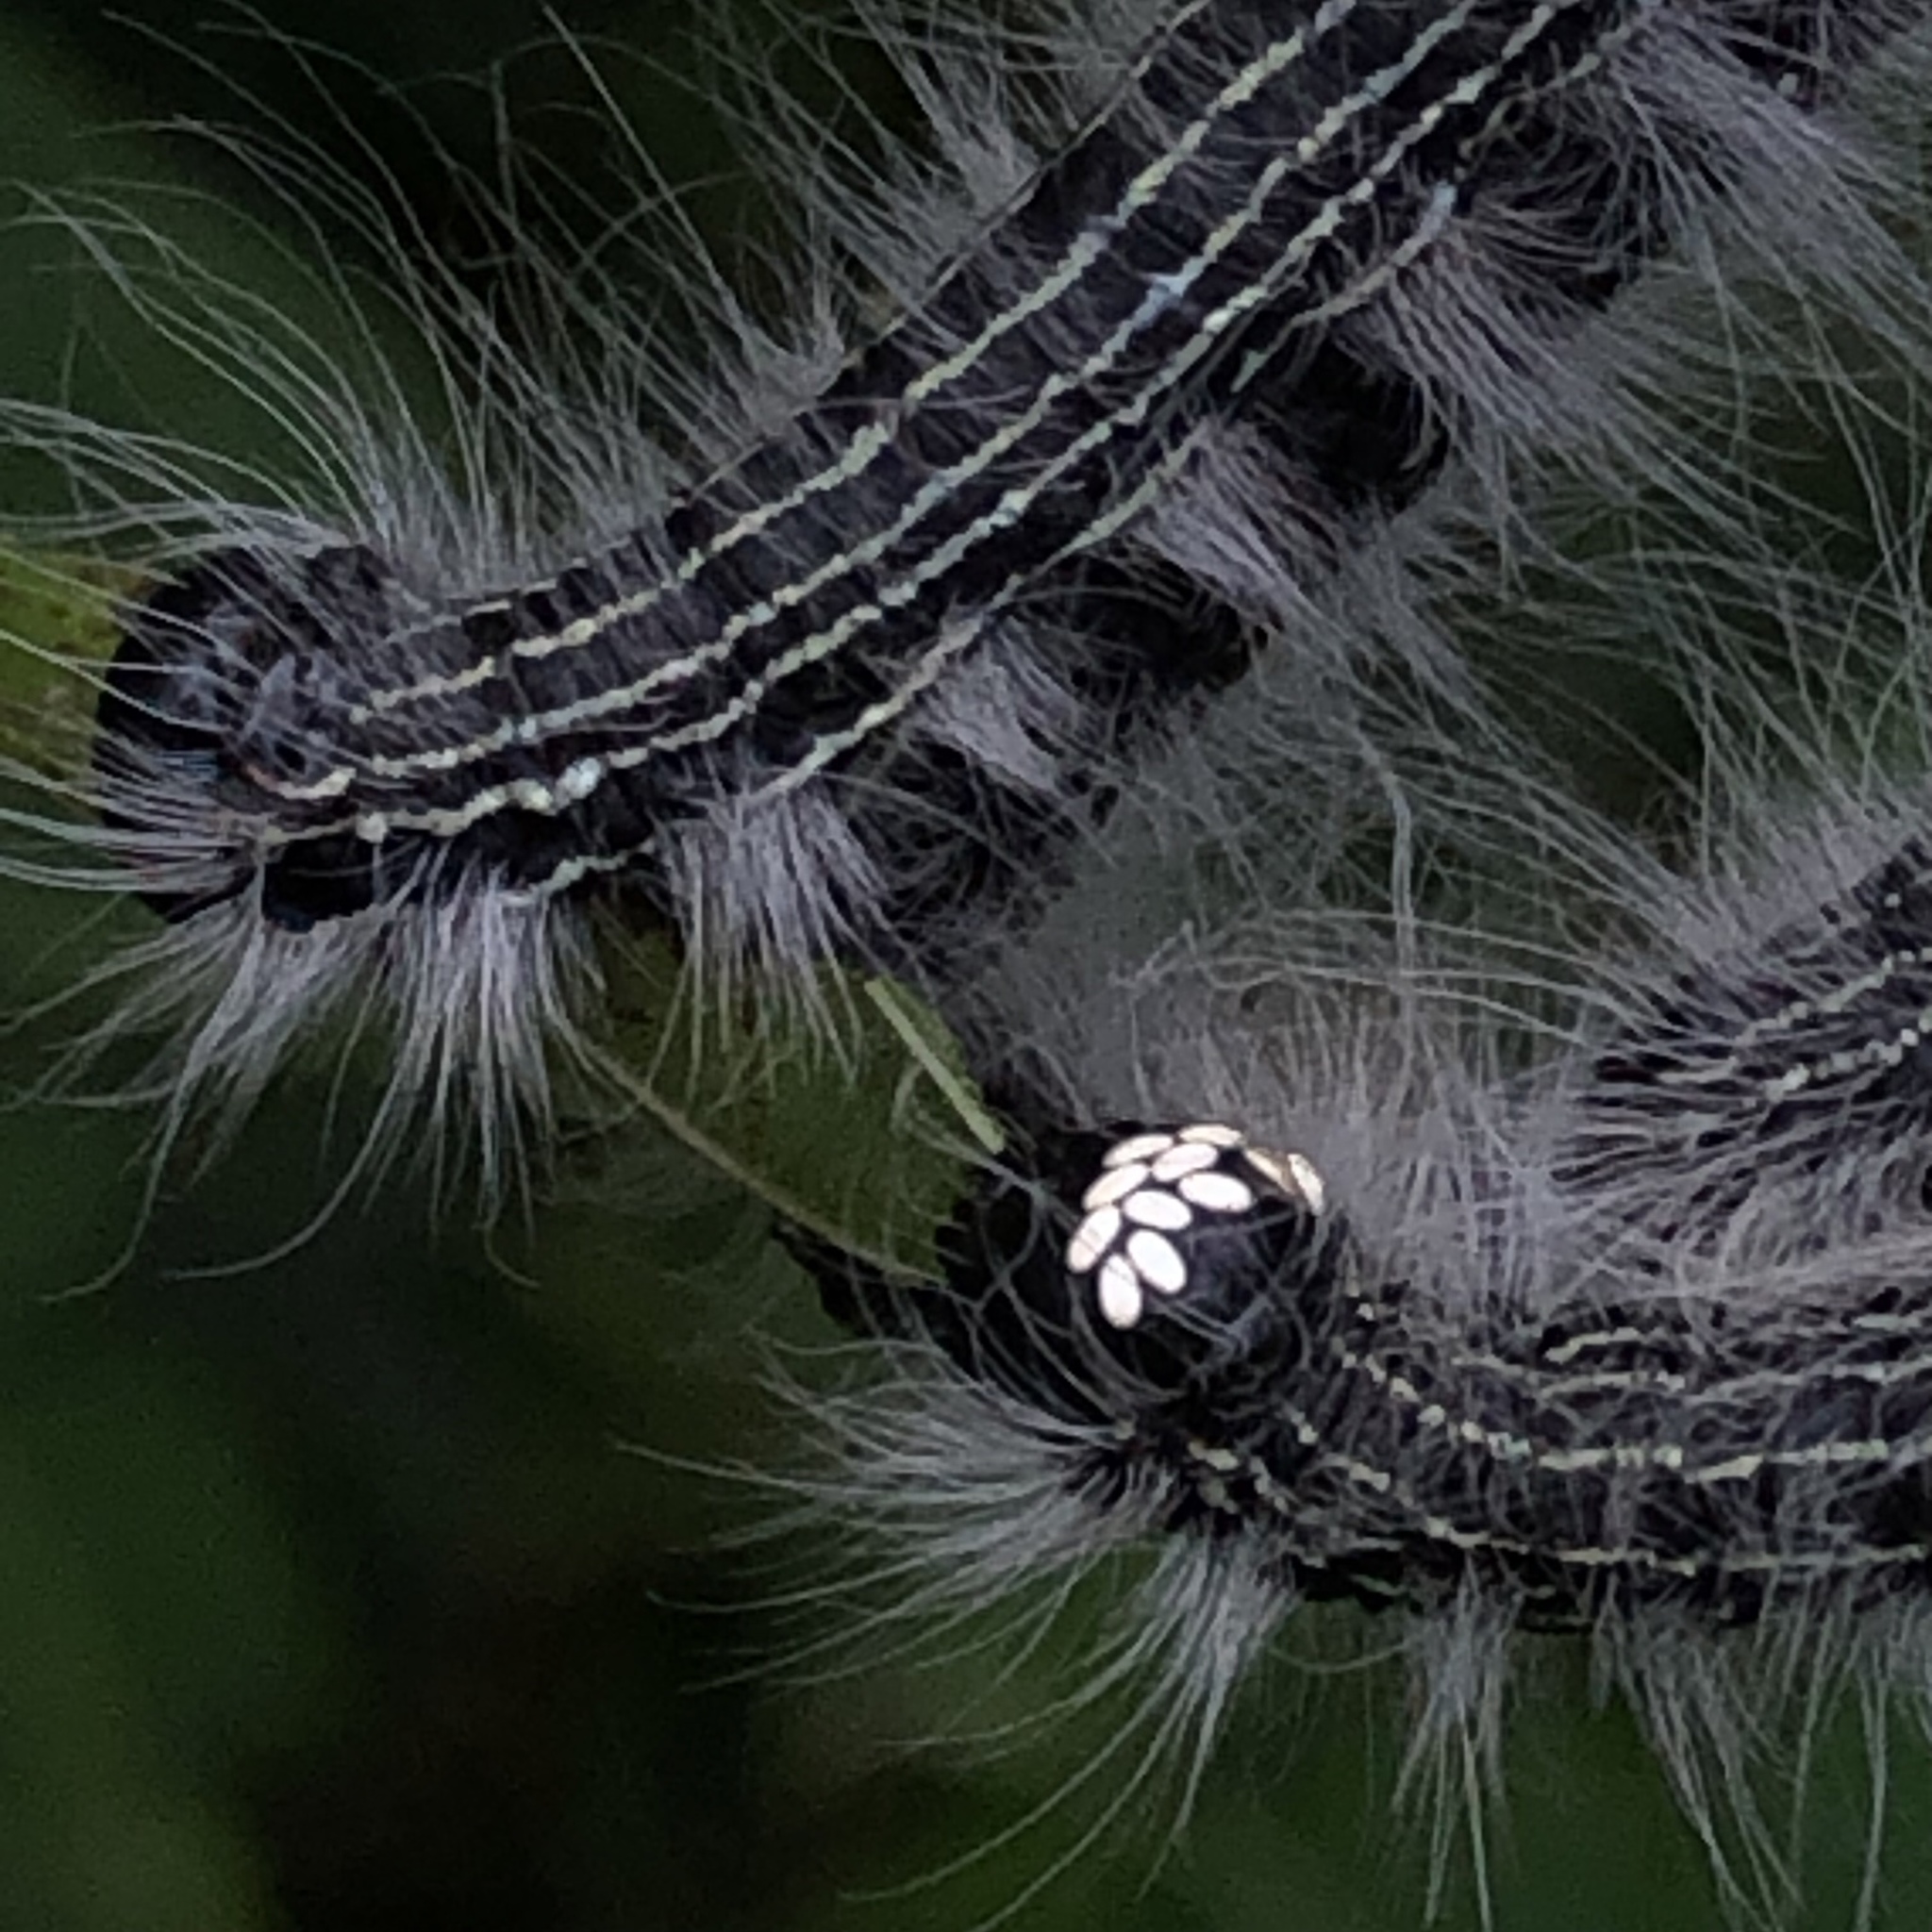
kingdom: Animalia
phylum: Arthropoda
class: Insecta
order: Lepidoptera
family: Notodontidae
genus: Datana
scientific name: Datana integerrima
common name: Walnut caterpillar
